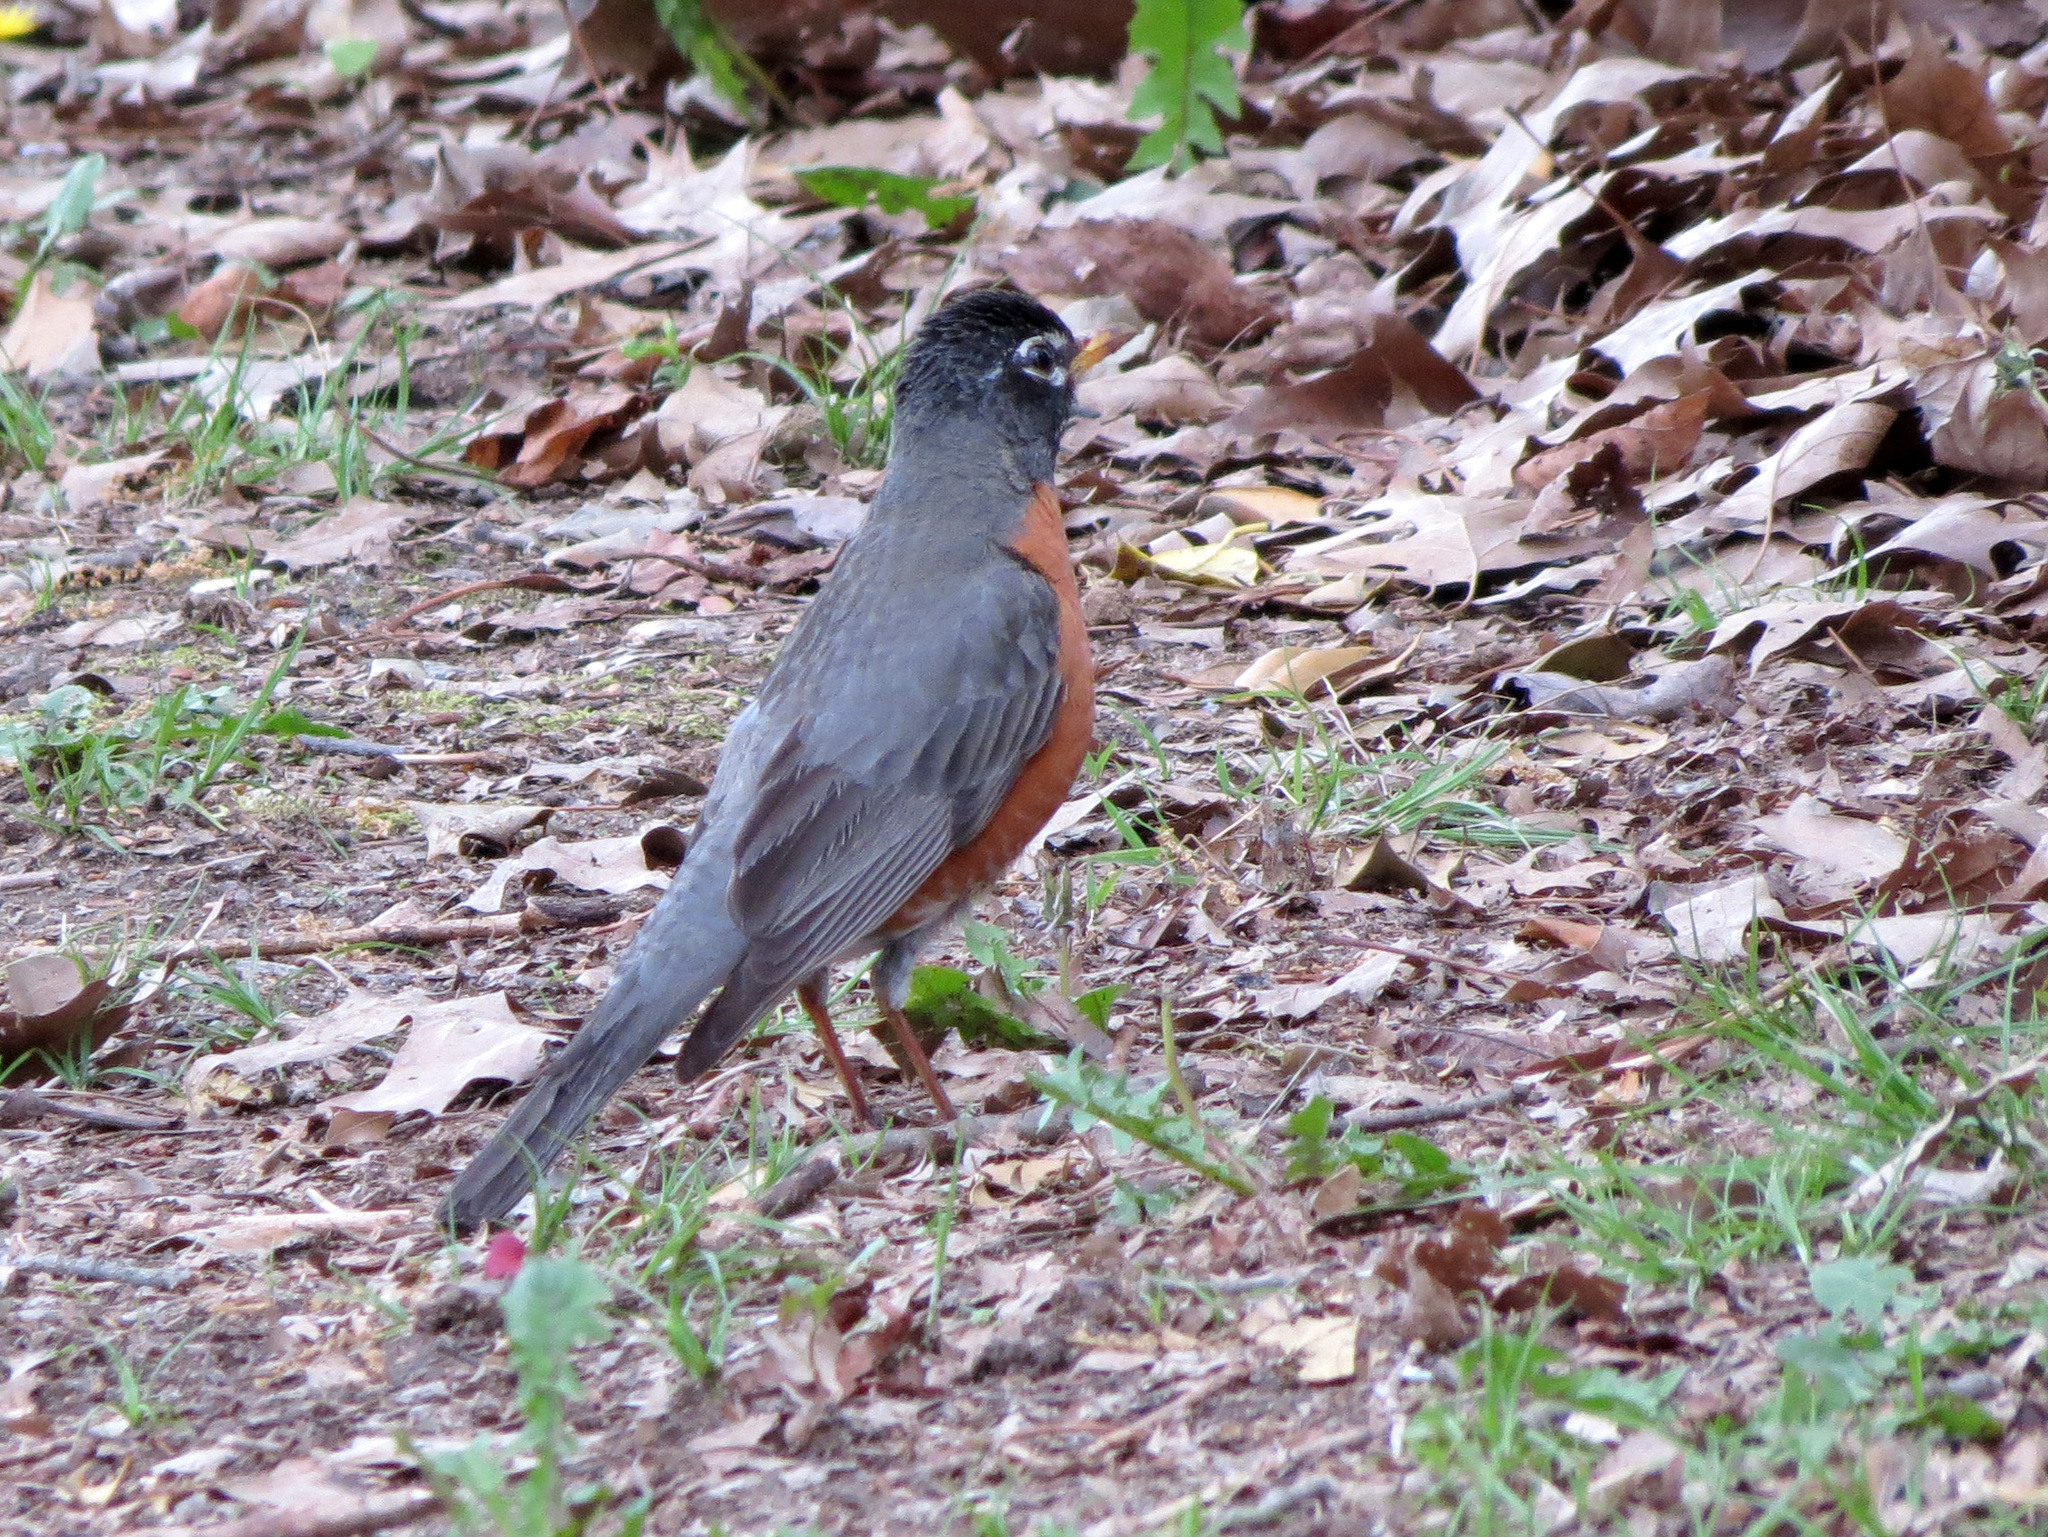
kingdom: Animalia
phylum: Chordata
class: Aves
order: Passeriformes
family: Turdidae
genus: Turdus
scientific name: Turdus migratorius
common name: American robin
